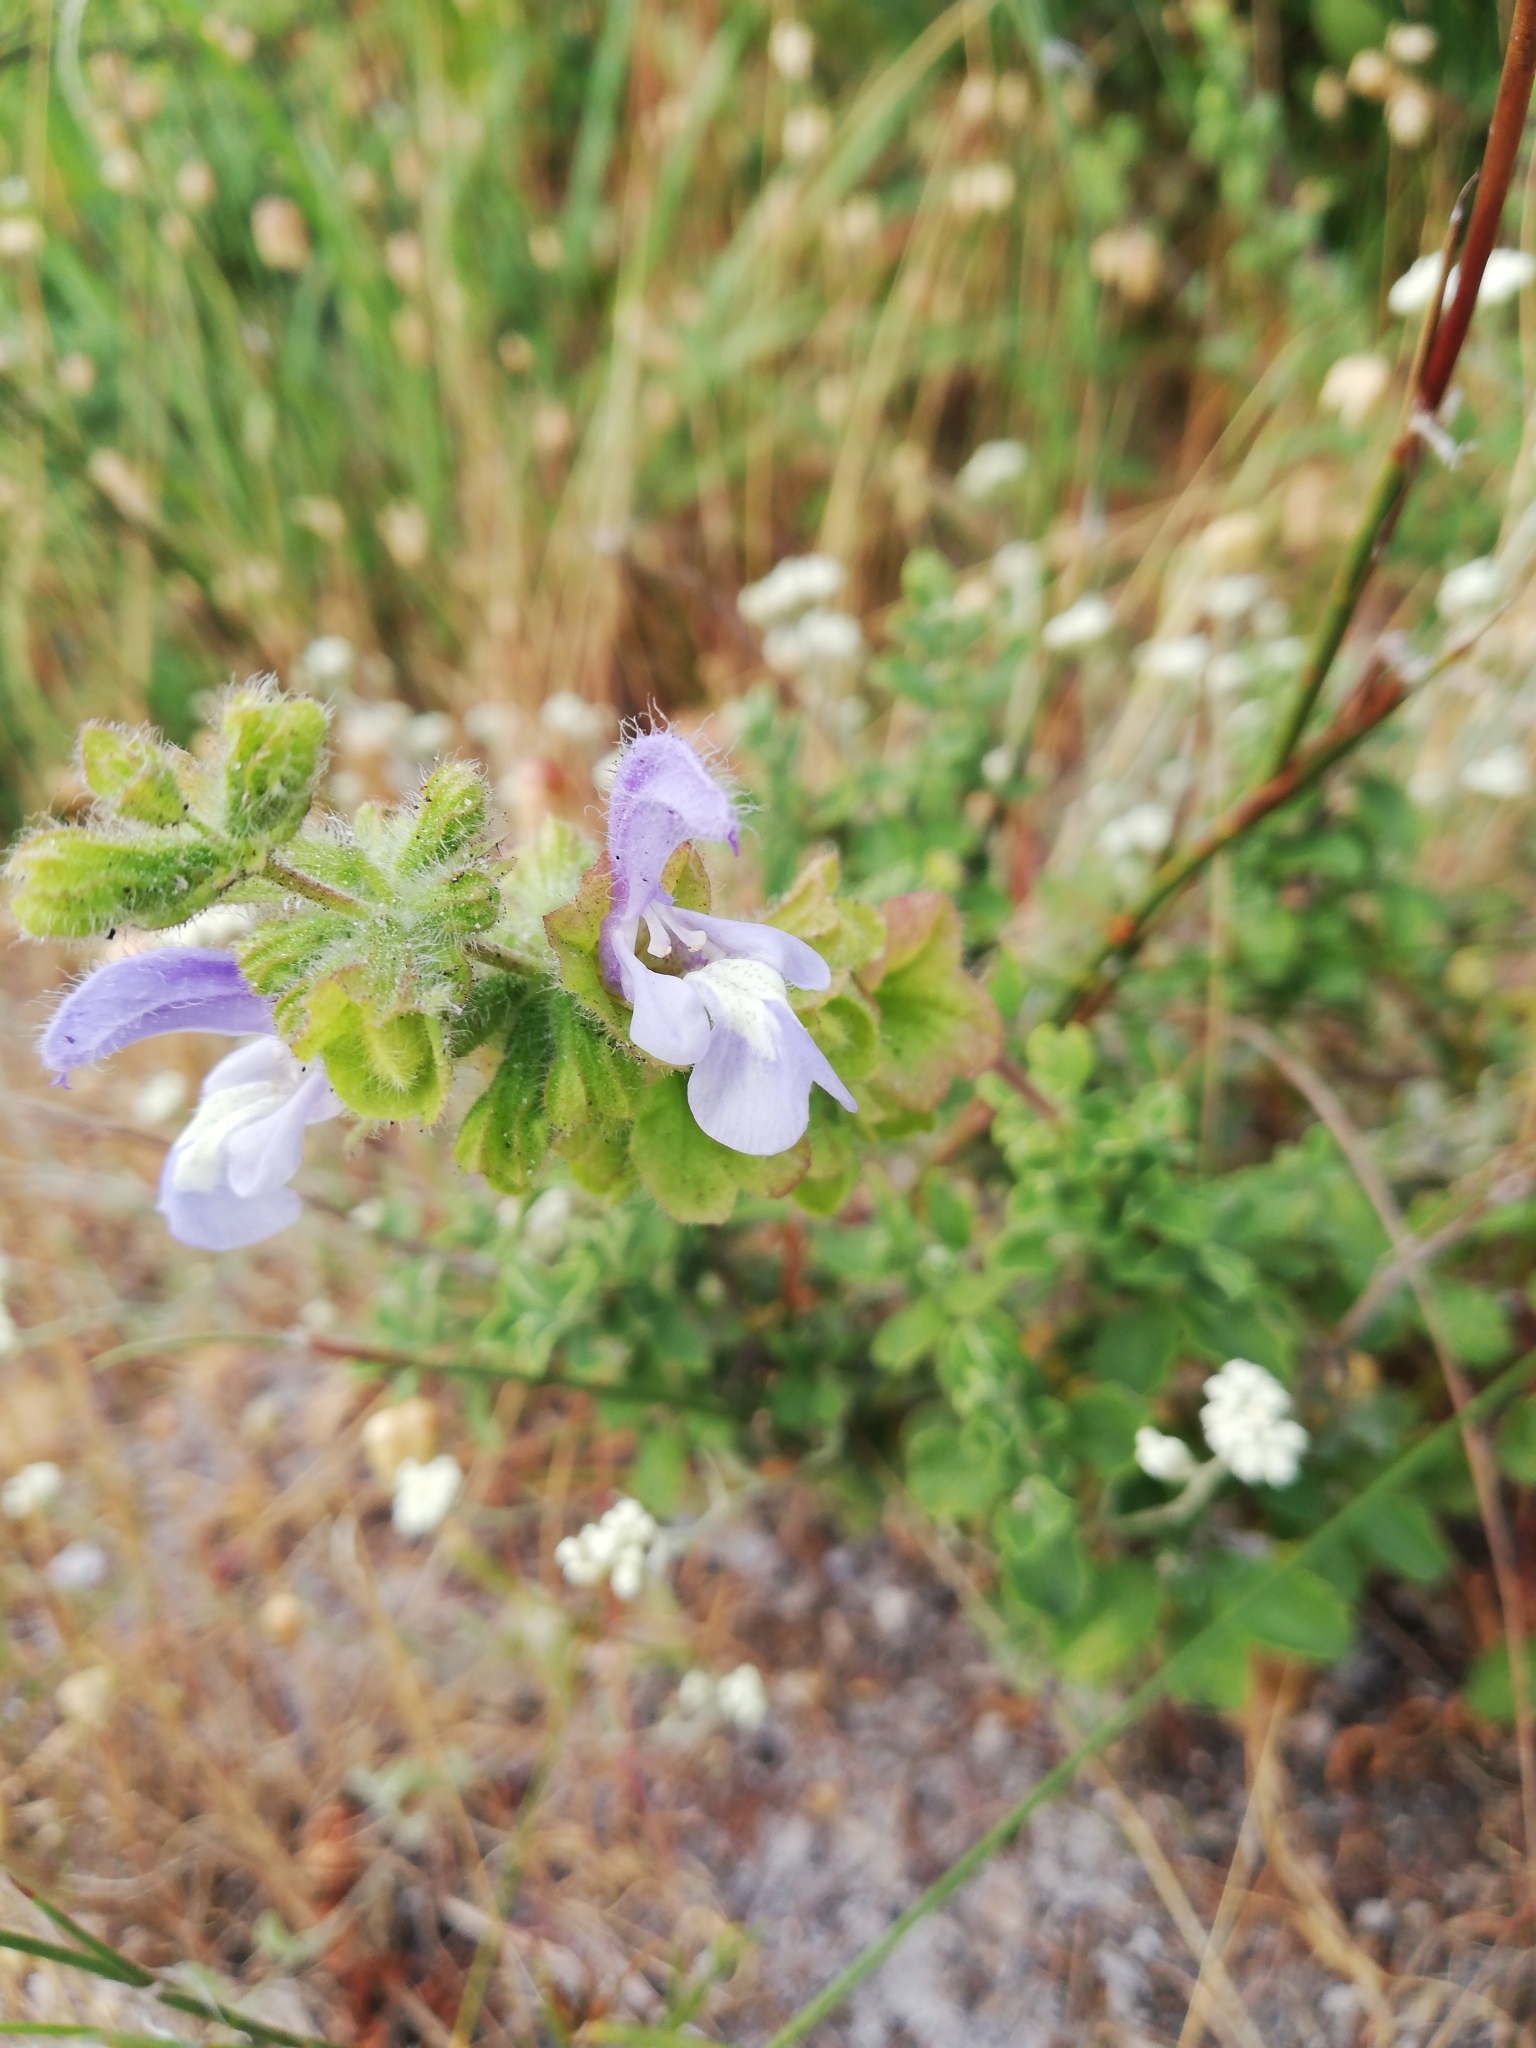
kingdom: Plantae
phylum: Tracheophyta
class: Magnoliopsida
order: Lamiales
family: Lamiaceae
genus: Salvia
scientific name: Salvia africana
